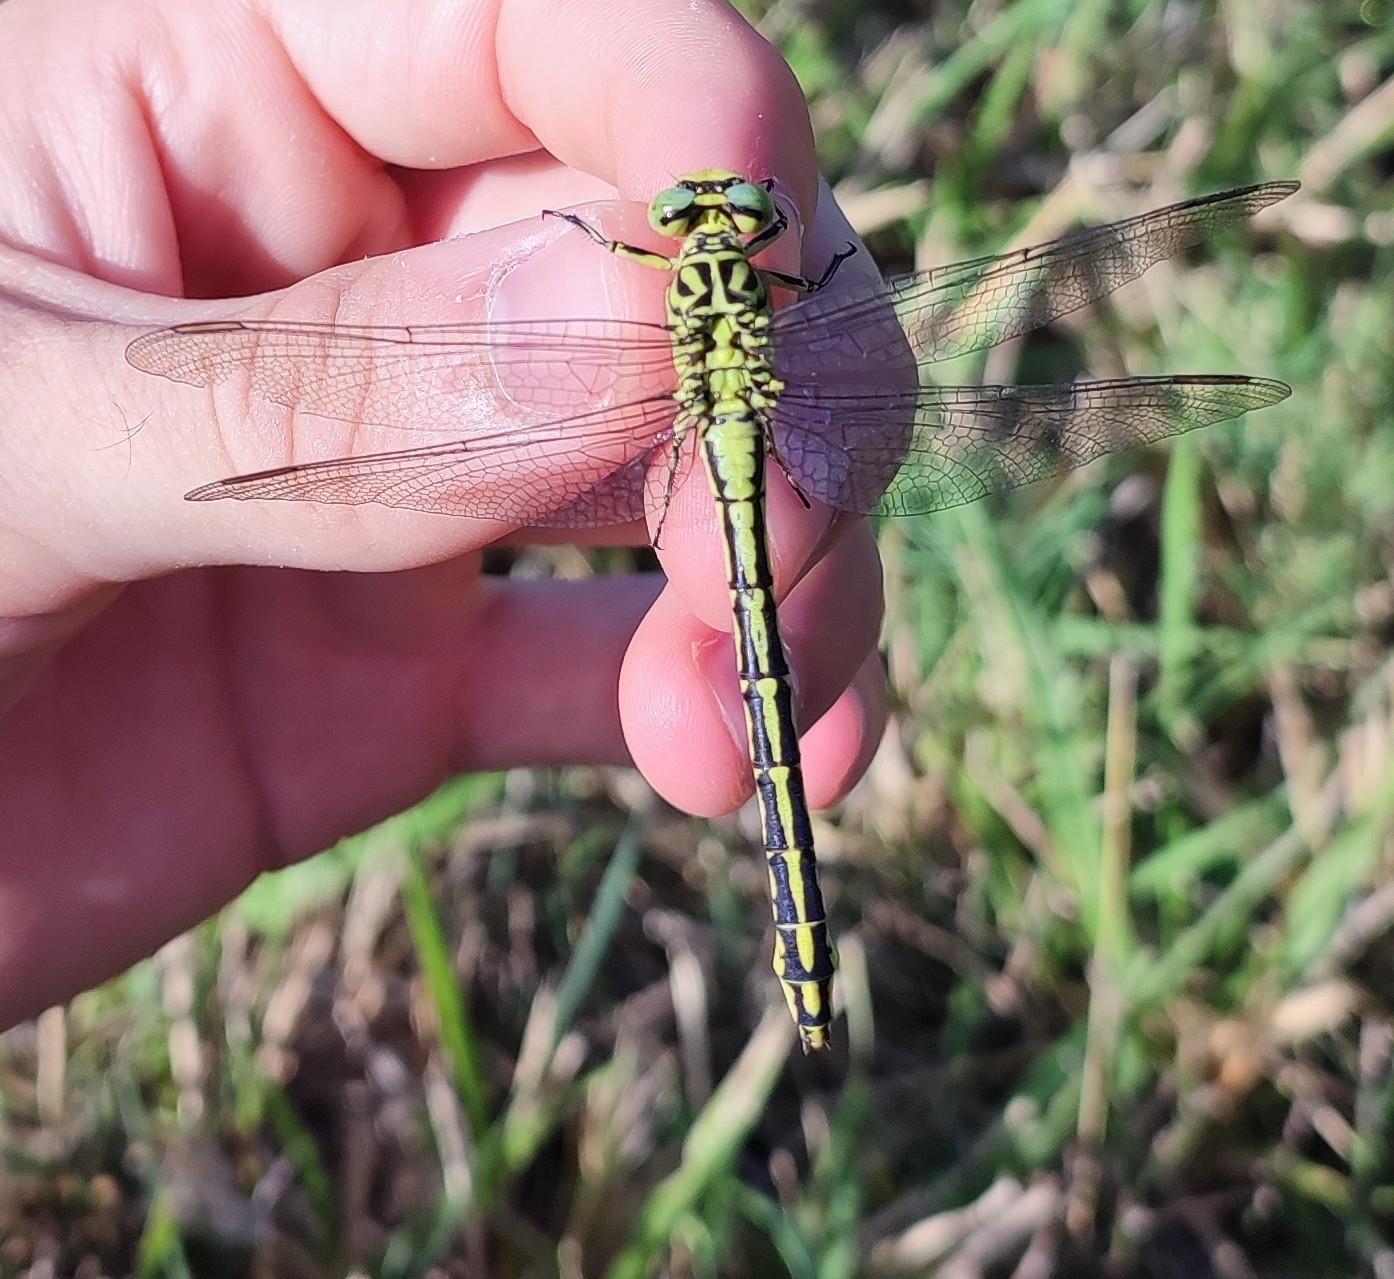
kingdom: Animalia
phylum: Arthropoda
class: Insecta
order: Odonata
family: Gomphidae
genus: Stylurus
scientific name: Stylurus flavipes
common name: River clubtail
